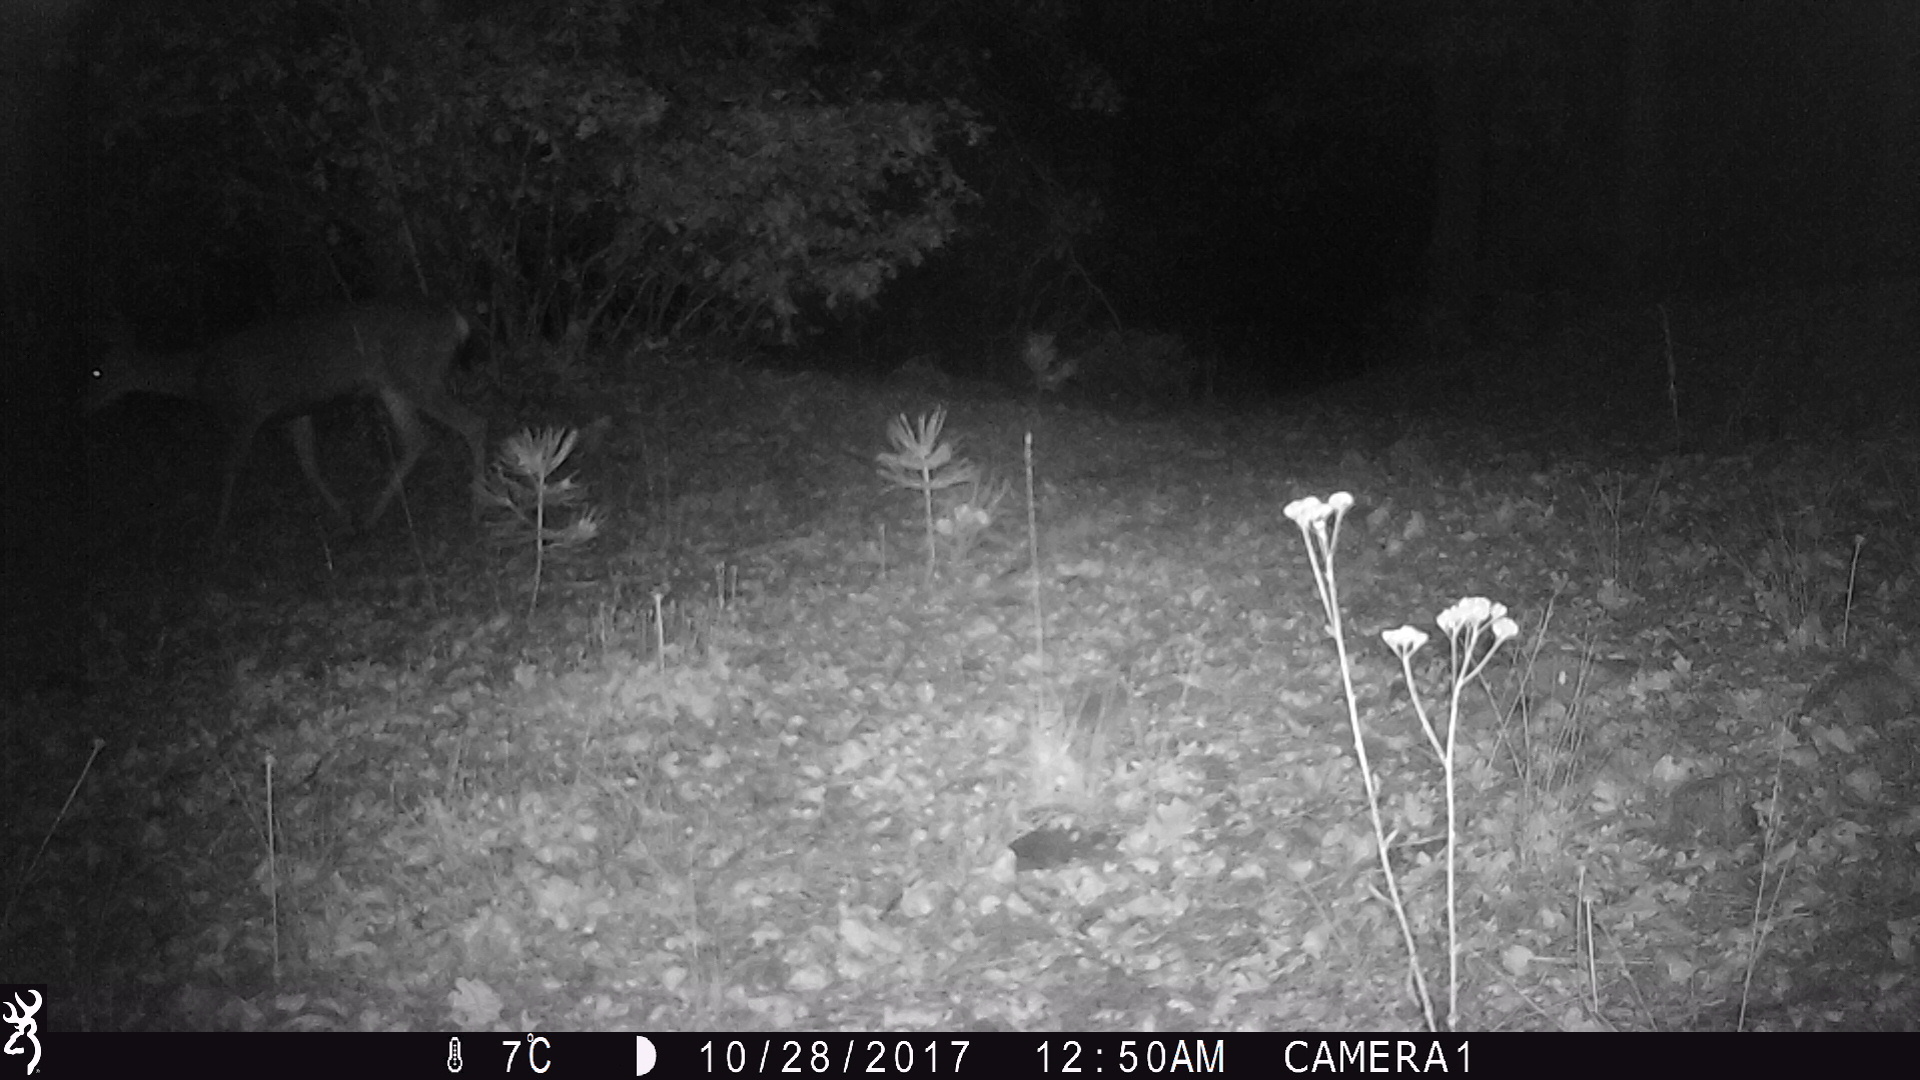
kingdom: Animalia
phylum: Chordata
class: Mammalia
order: Artiodactyla
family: Cervidae
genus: Odocoileus
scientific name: Odocoileus hemionus
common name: Mule deer
